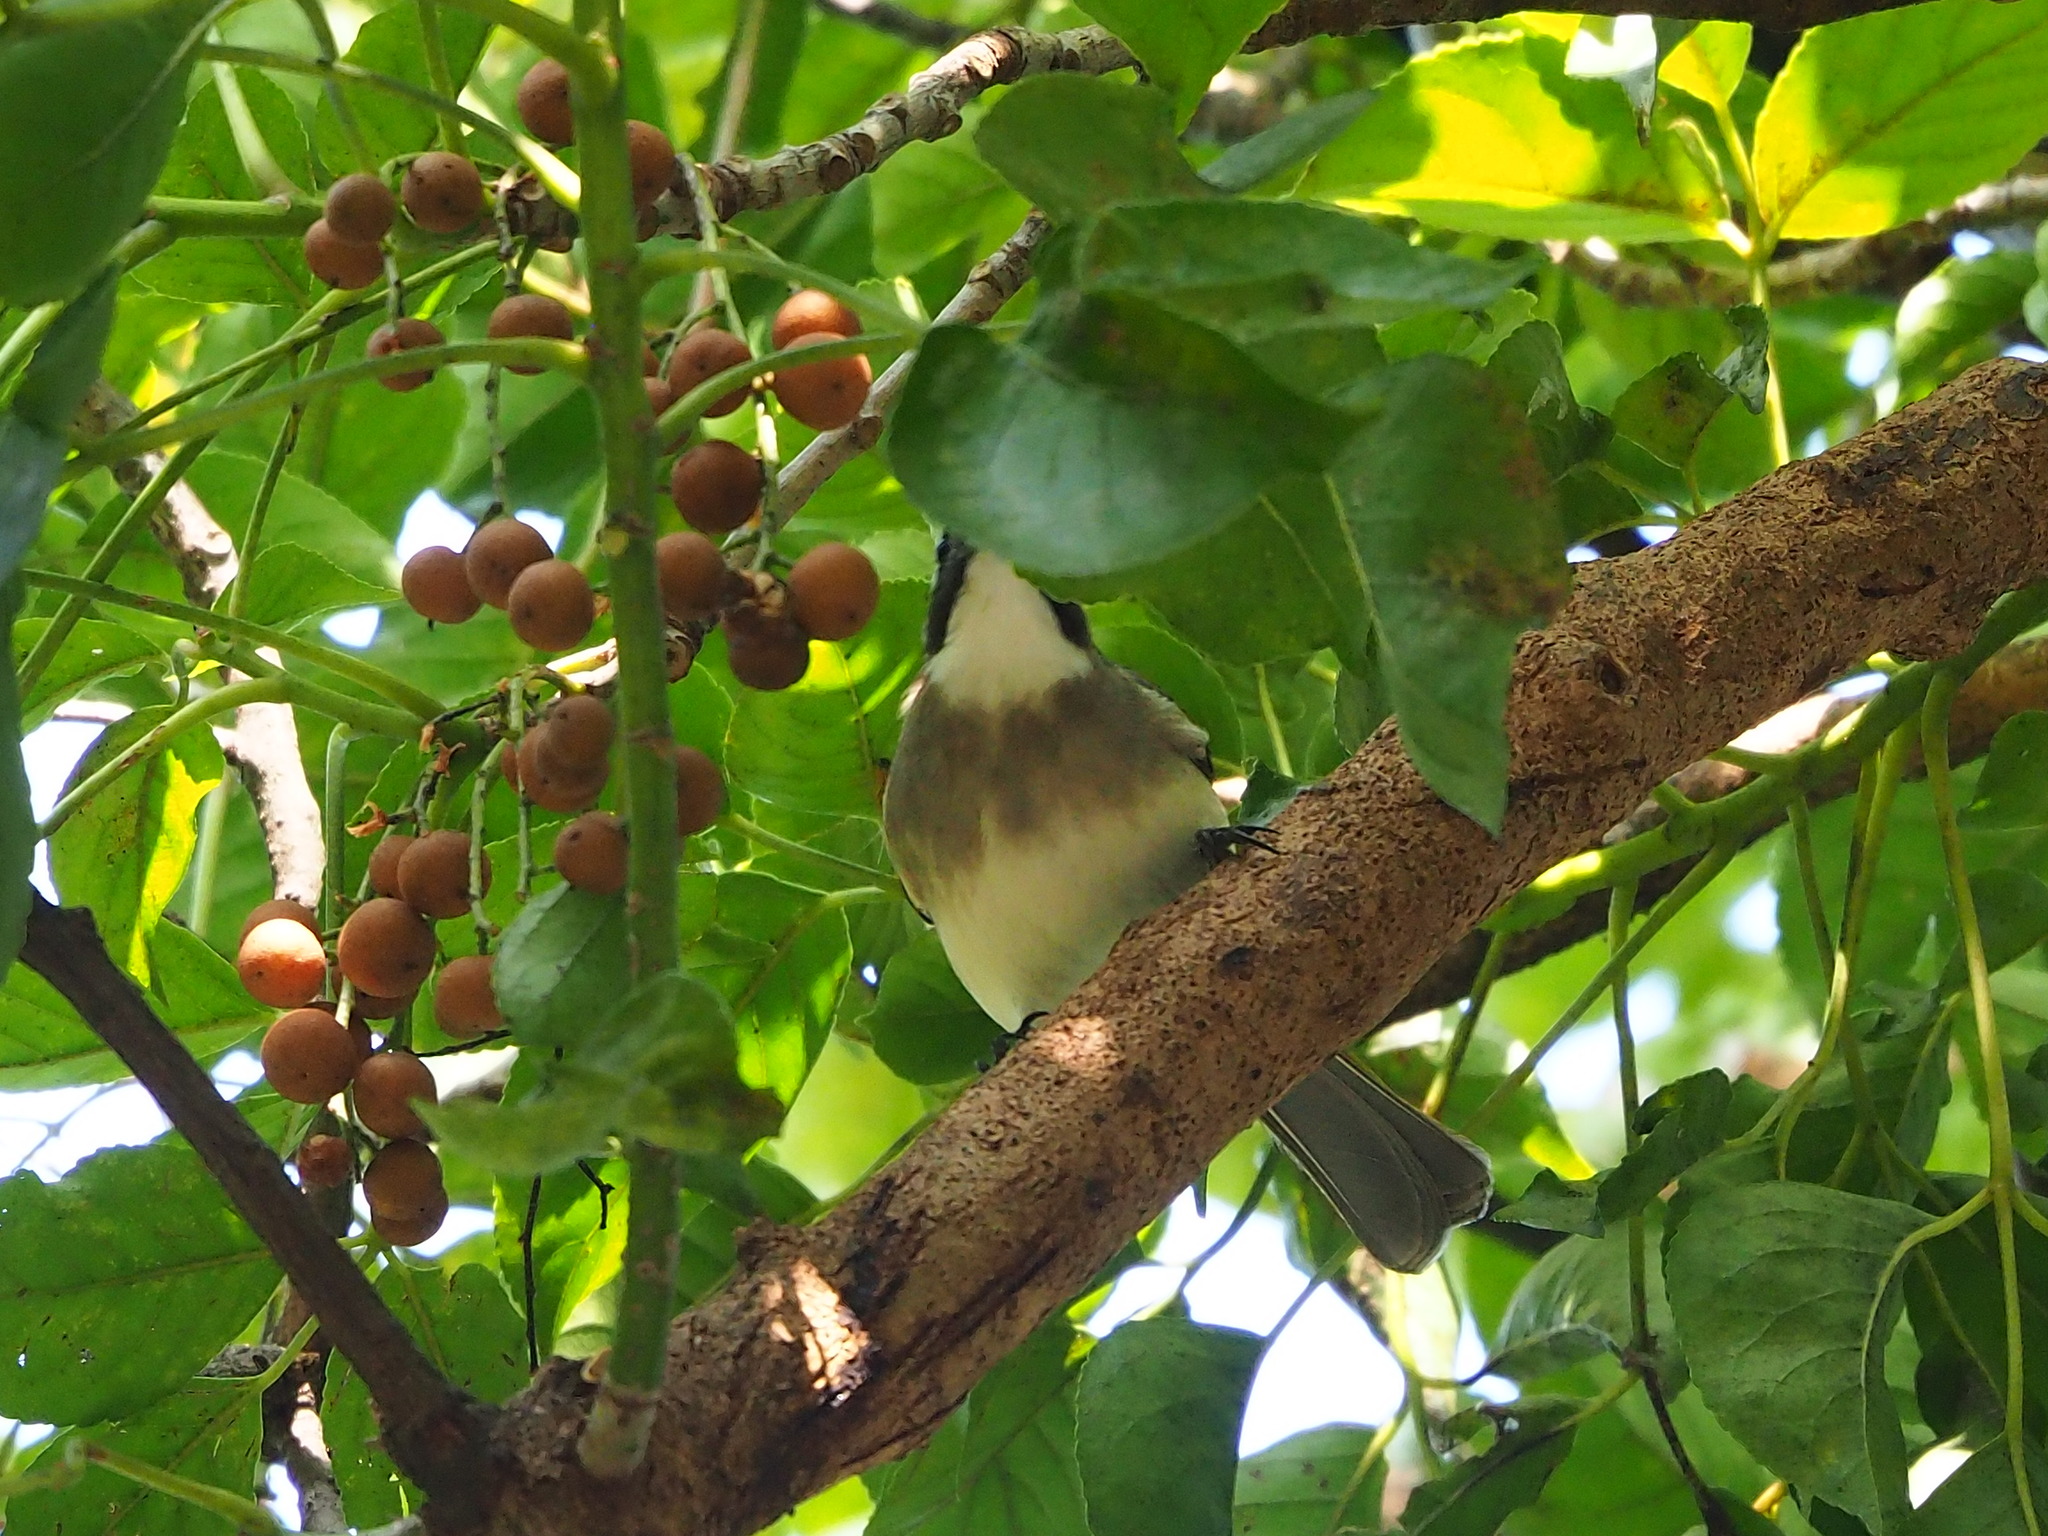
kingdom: Animalia
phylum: Chordata
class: Aves
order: Passeriformes
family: Pycnonotidae
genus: Pycnonotus
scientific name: Pycnonotus sinensis
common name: Light-vented bulbul
